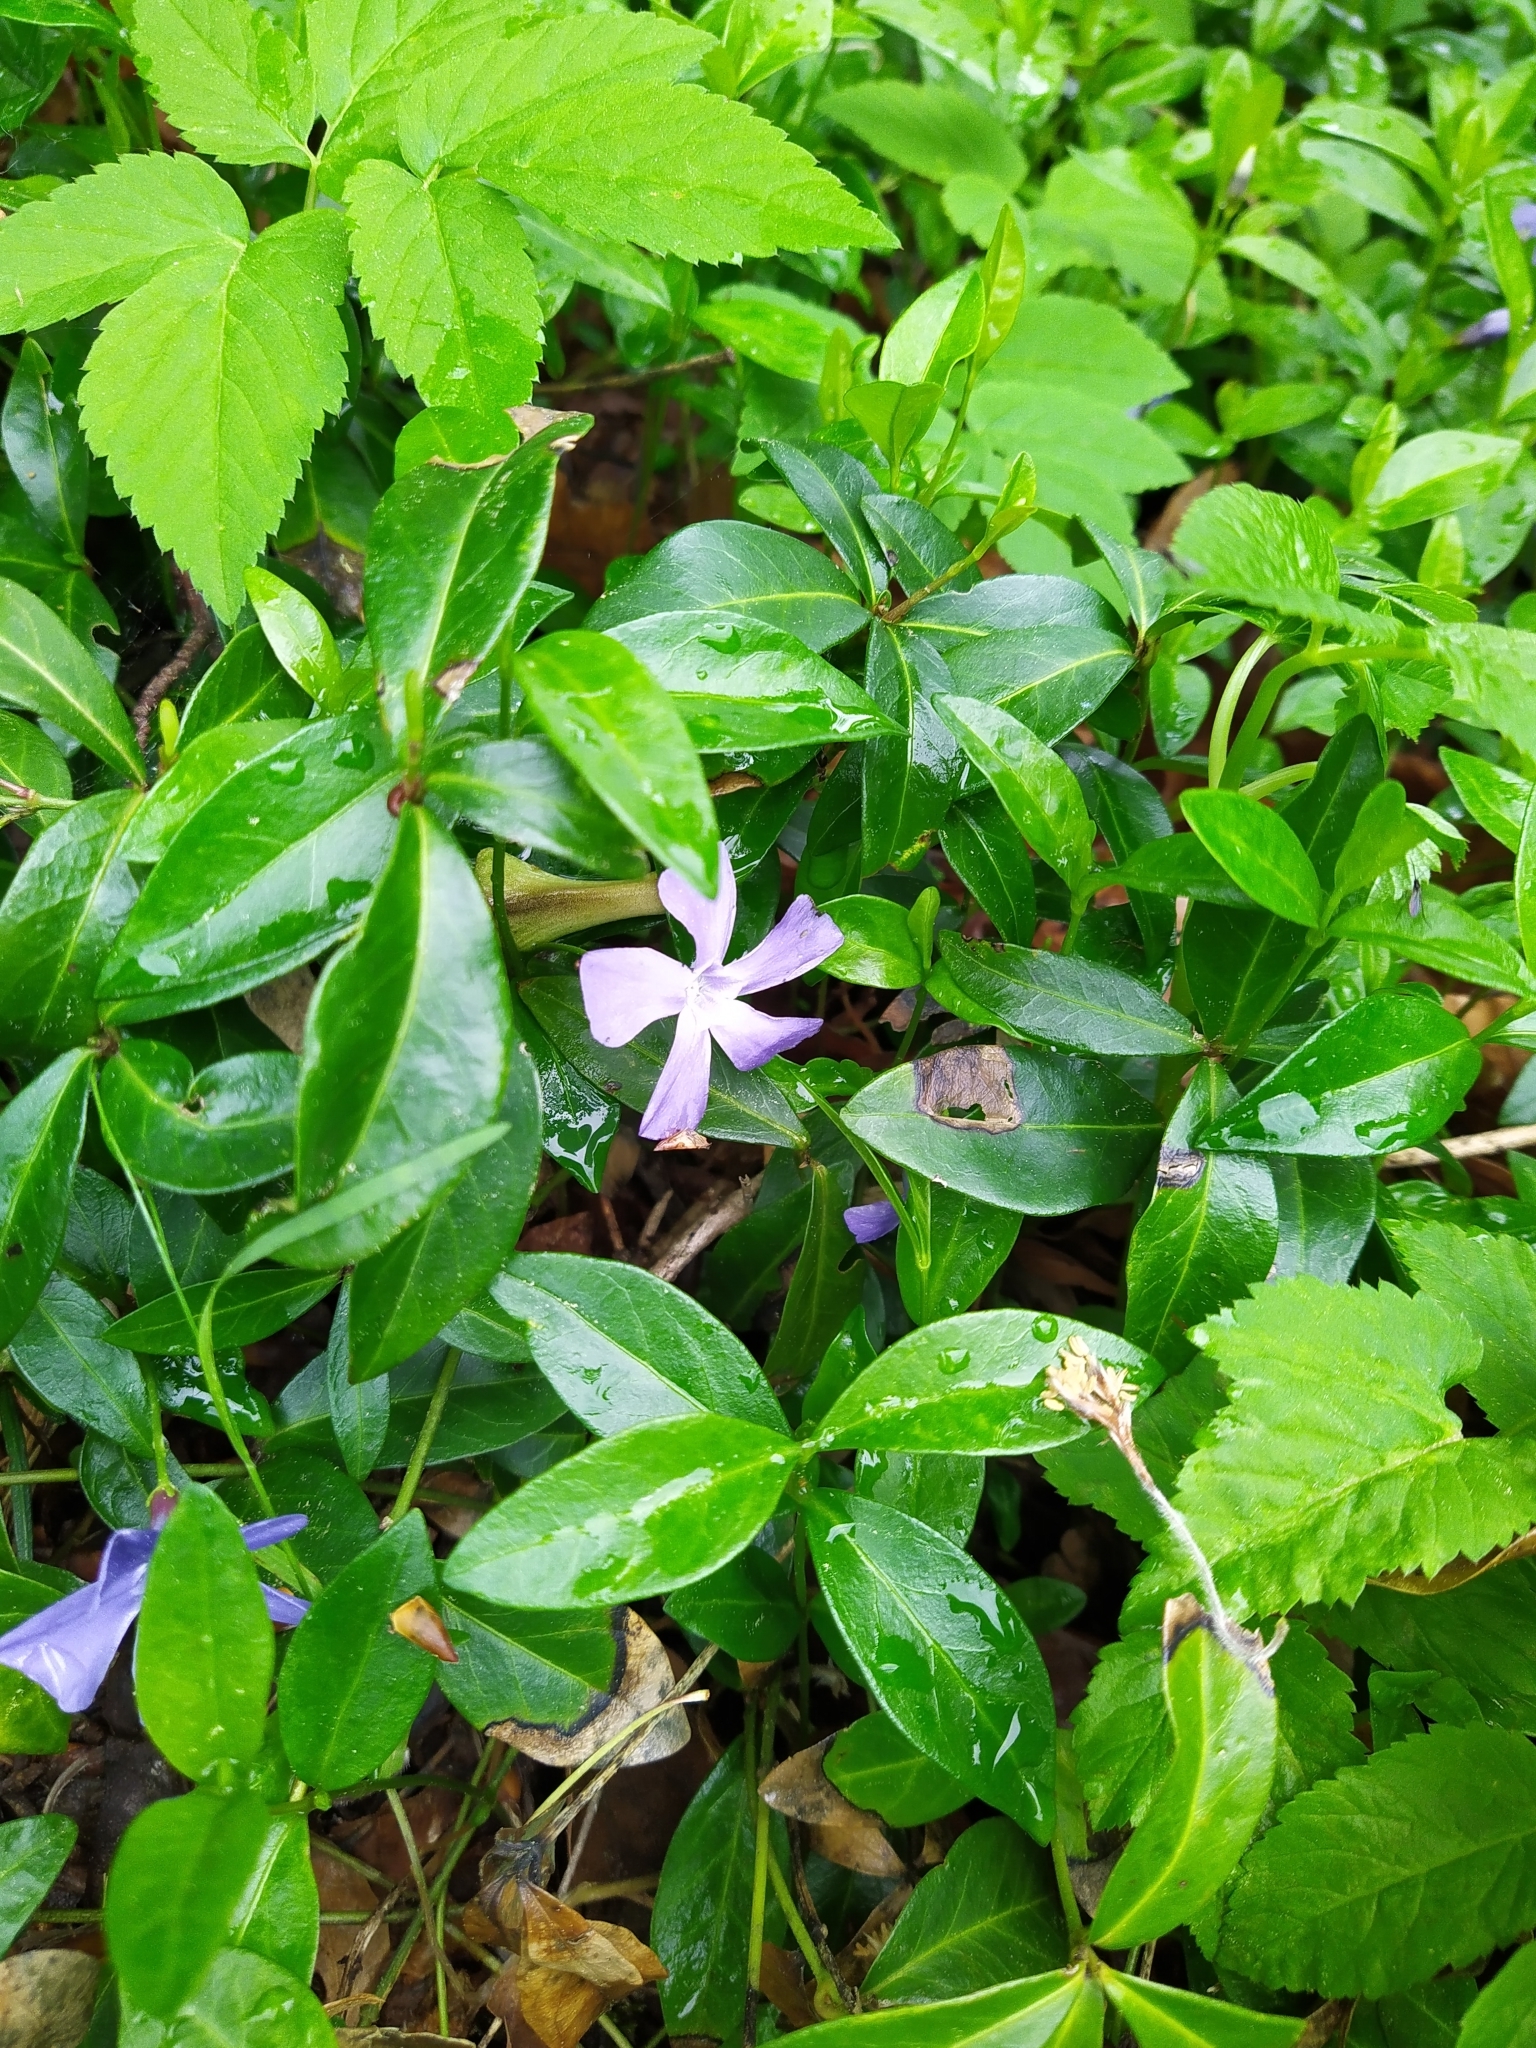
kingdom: Plantae
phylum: Tracheophyta
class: Magnoliopsida
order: Gentianales
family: Apocynaceae
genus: Vinca
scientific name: Vinca minor
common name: Lesser periwinkle
